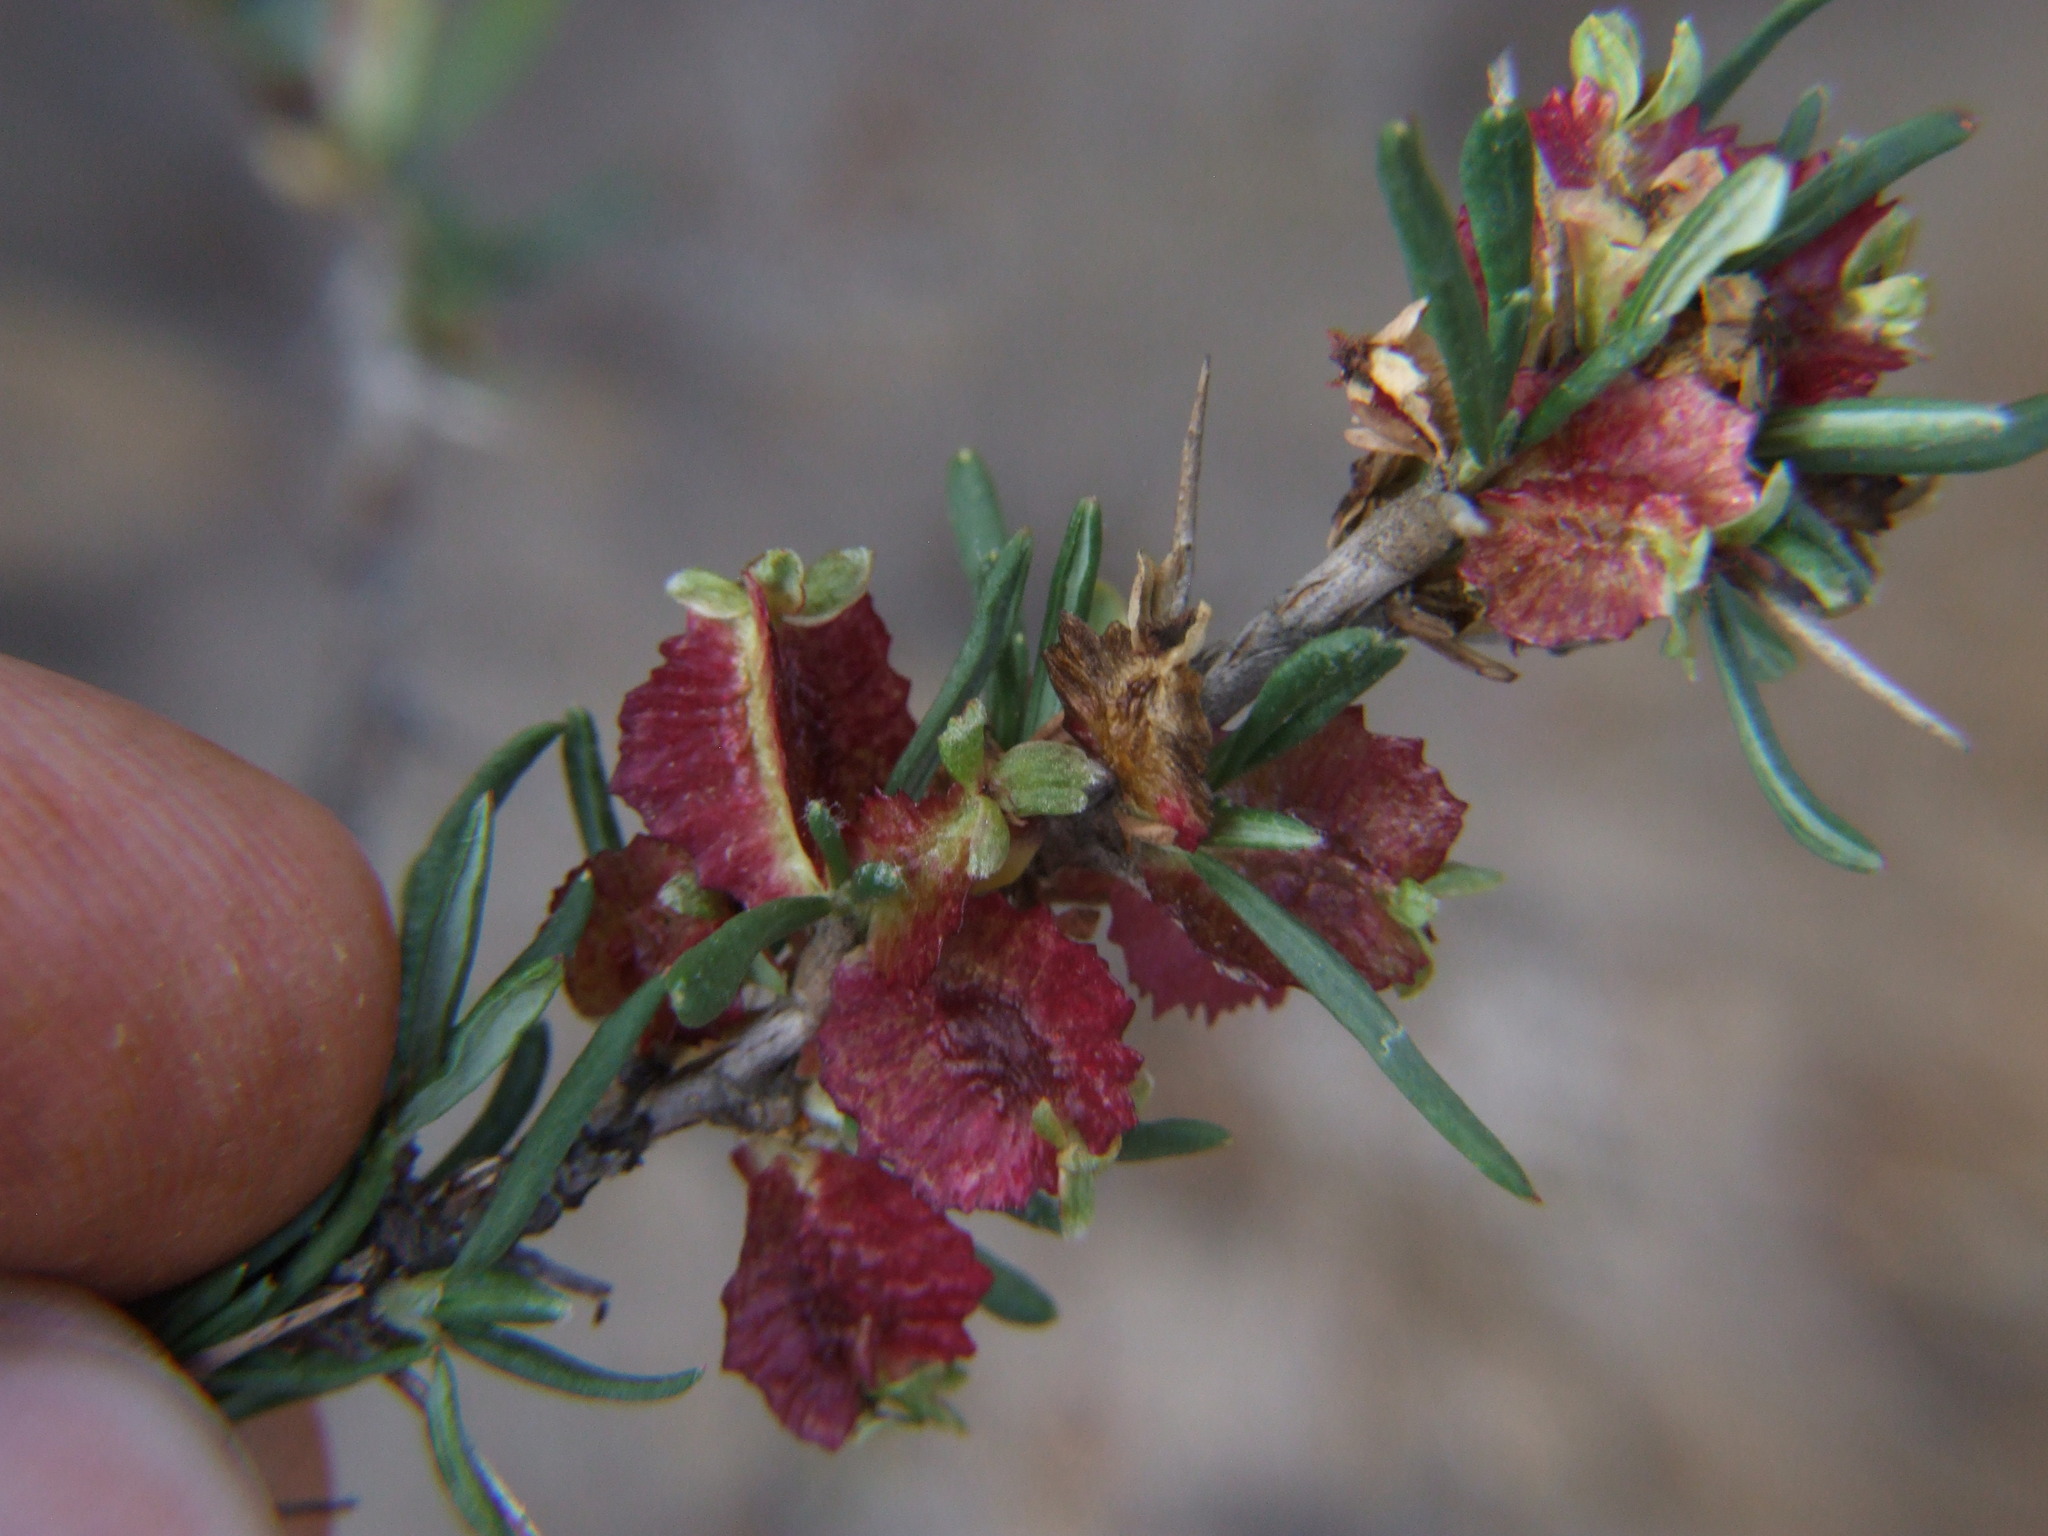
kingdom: Plantae
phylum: Tracheophyta
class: Magnoliopsida
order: Rosales
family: Rosaceae
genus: Margyricarpus
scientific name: Margyricarpus cristatus
